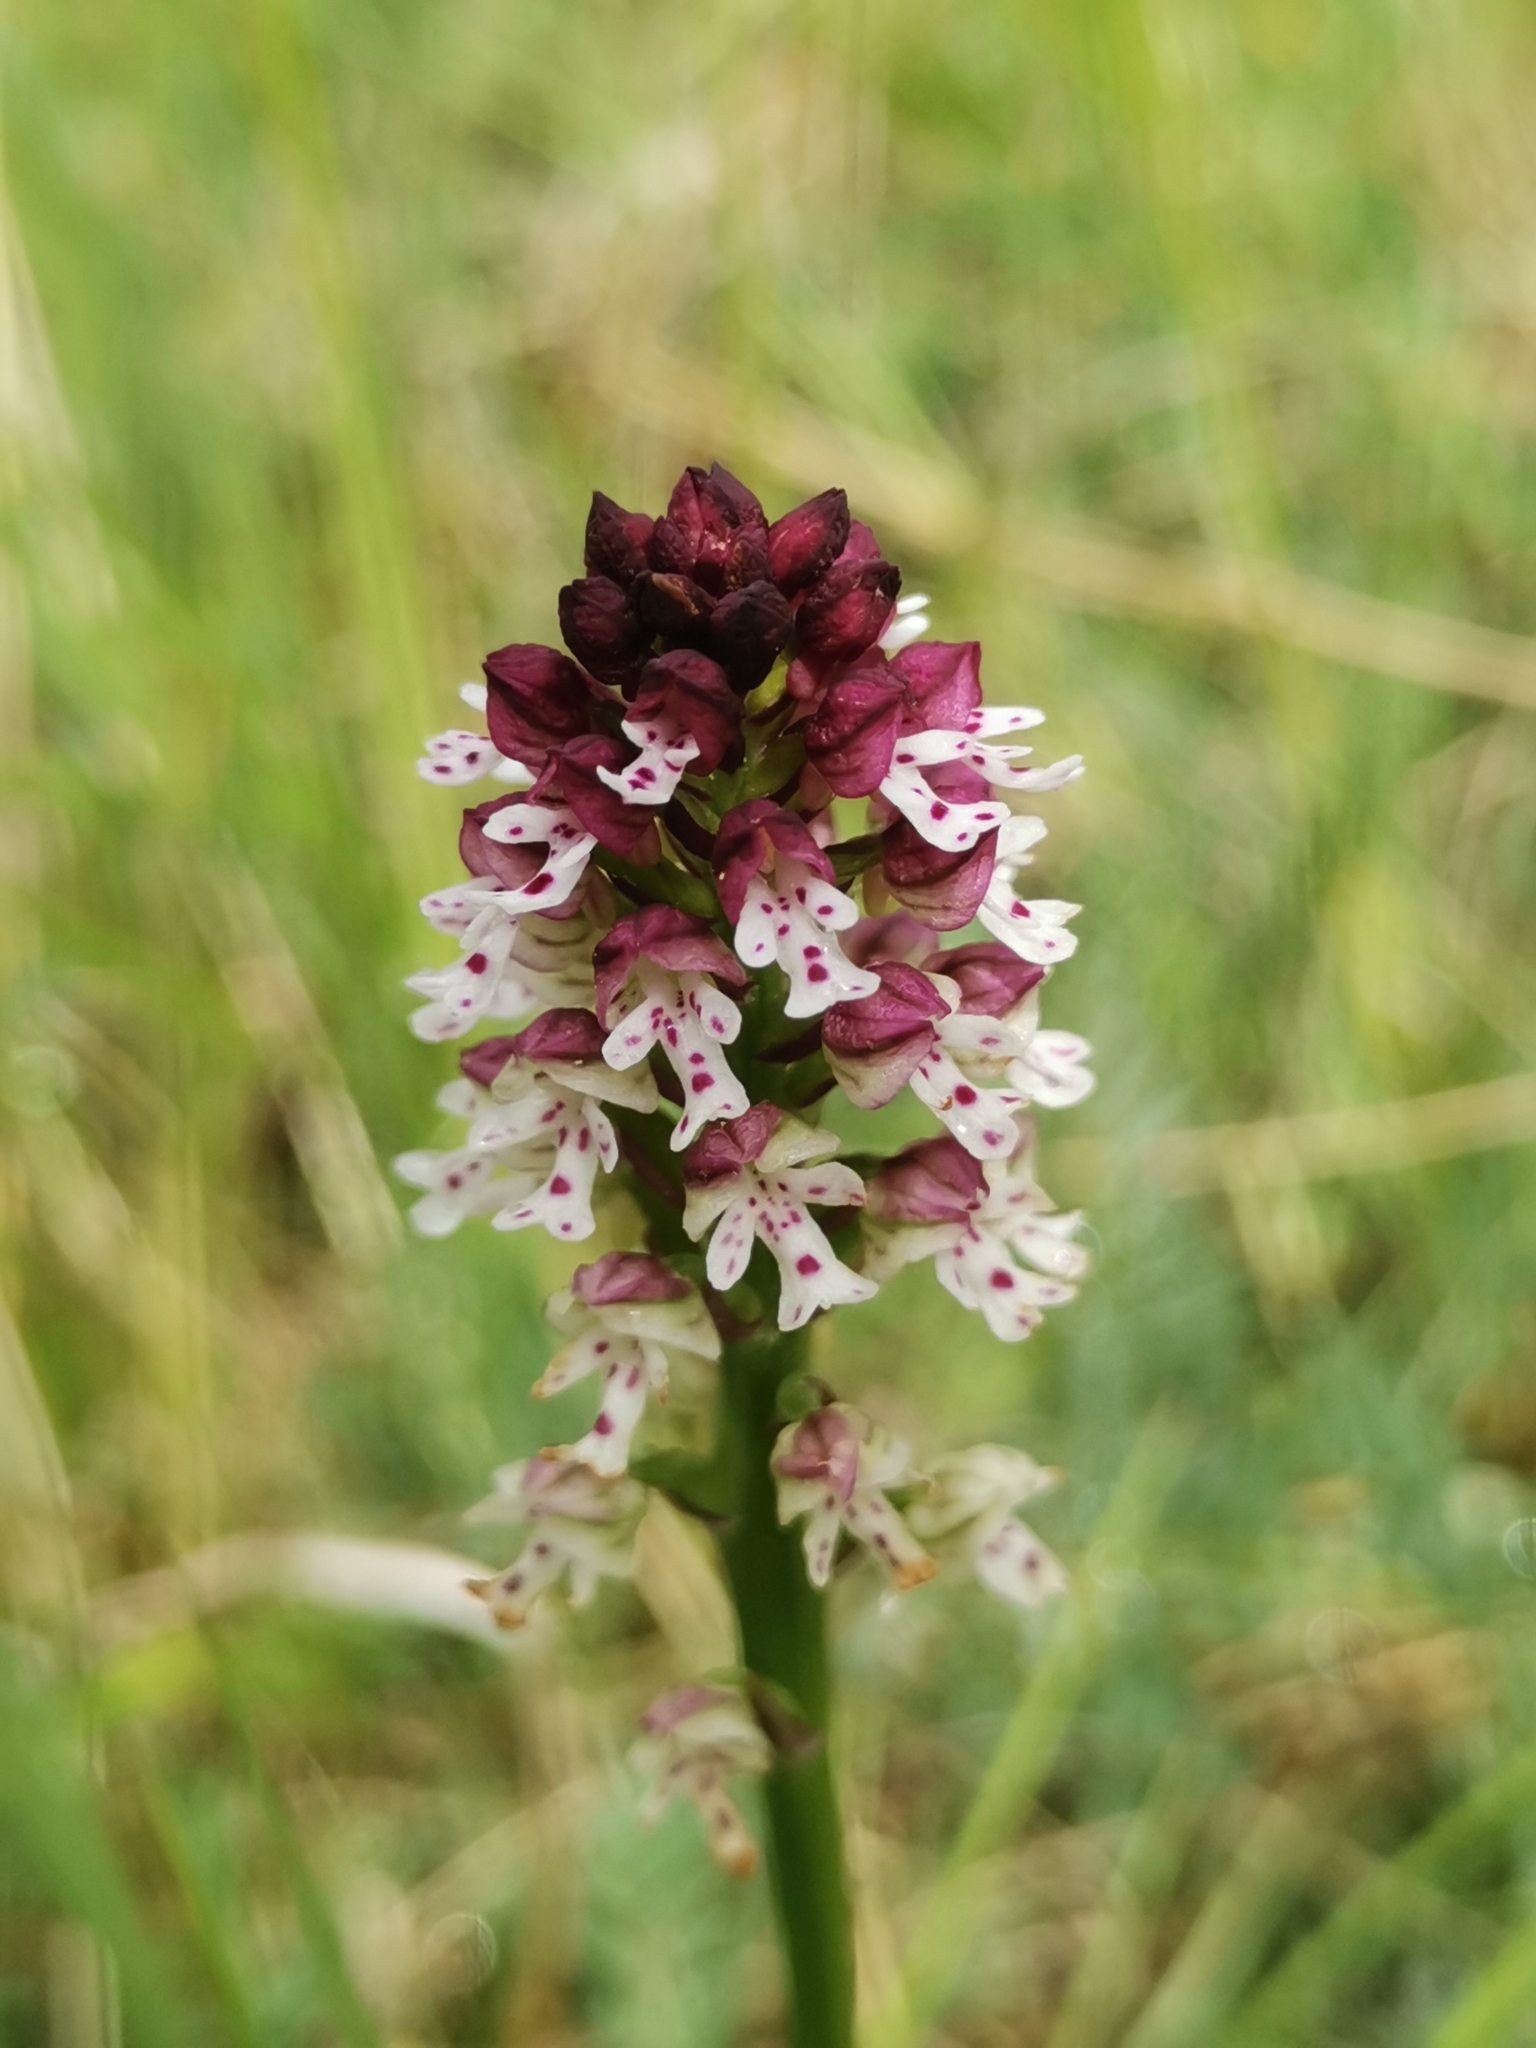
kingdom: Plantae
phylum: Tracheophyta
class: Liliopsida
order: Asparagales
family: Orchidaceae
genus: Neotinea
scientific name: Neotinea ustulata
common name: Burnt orchid
